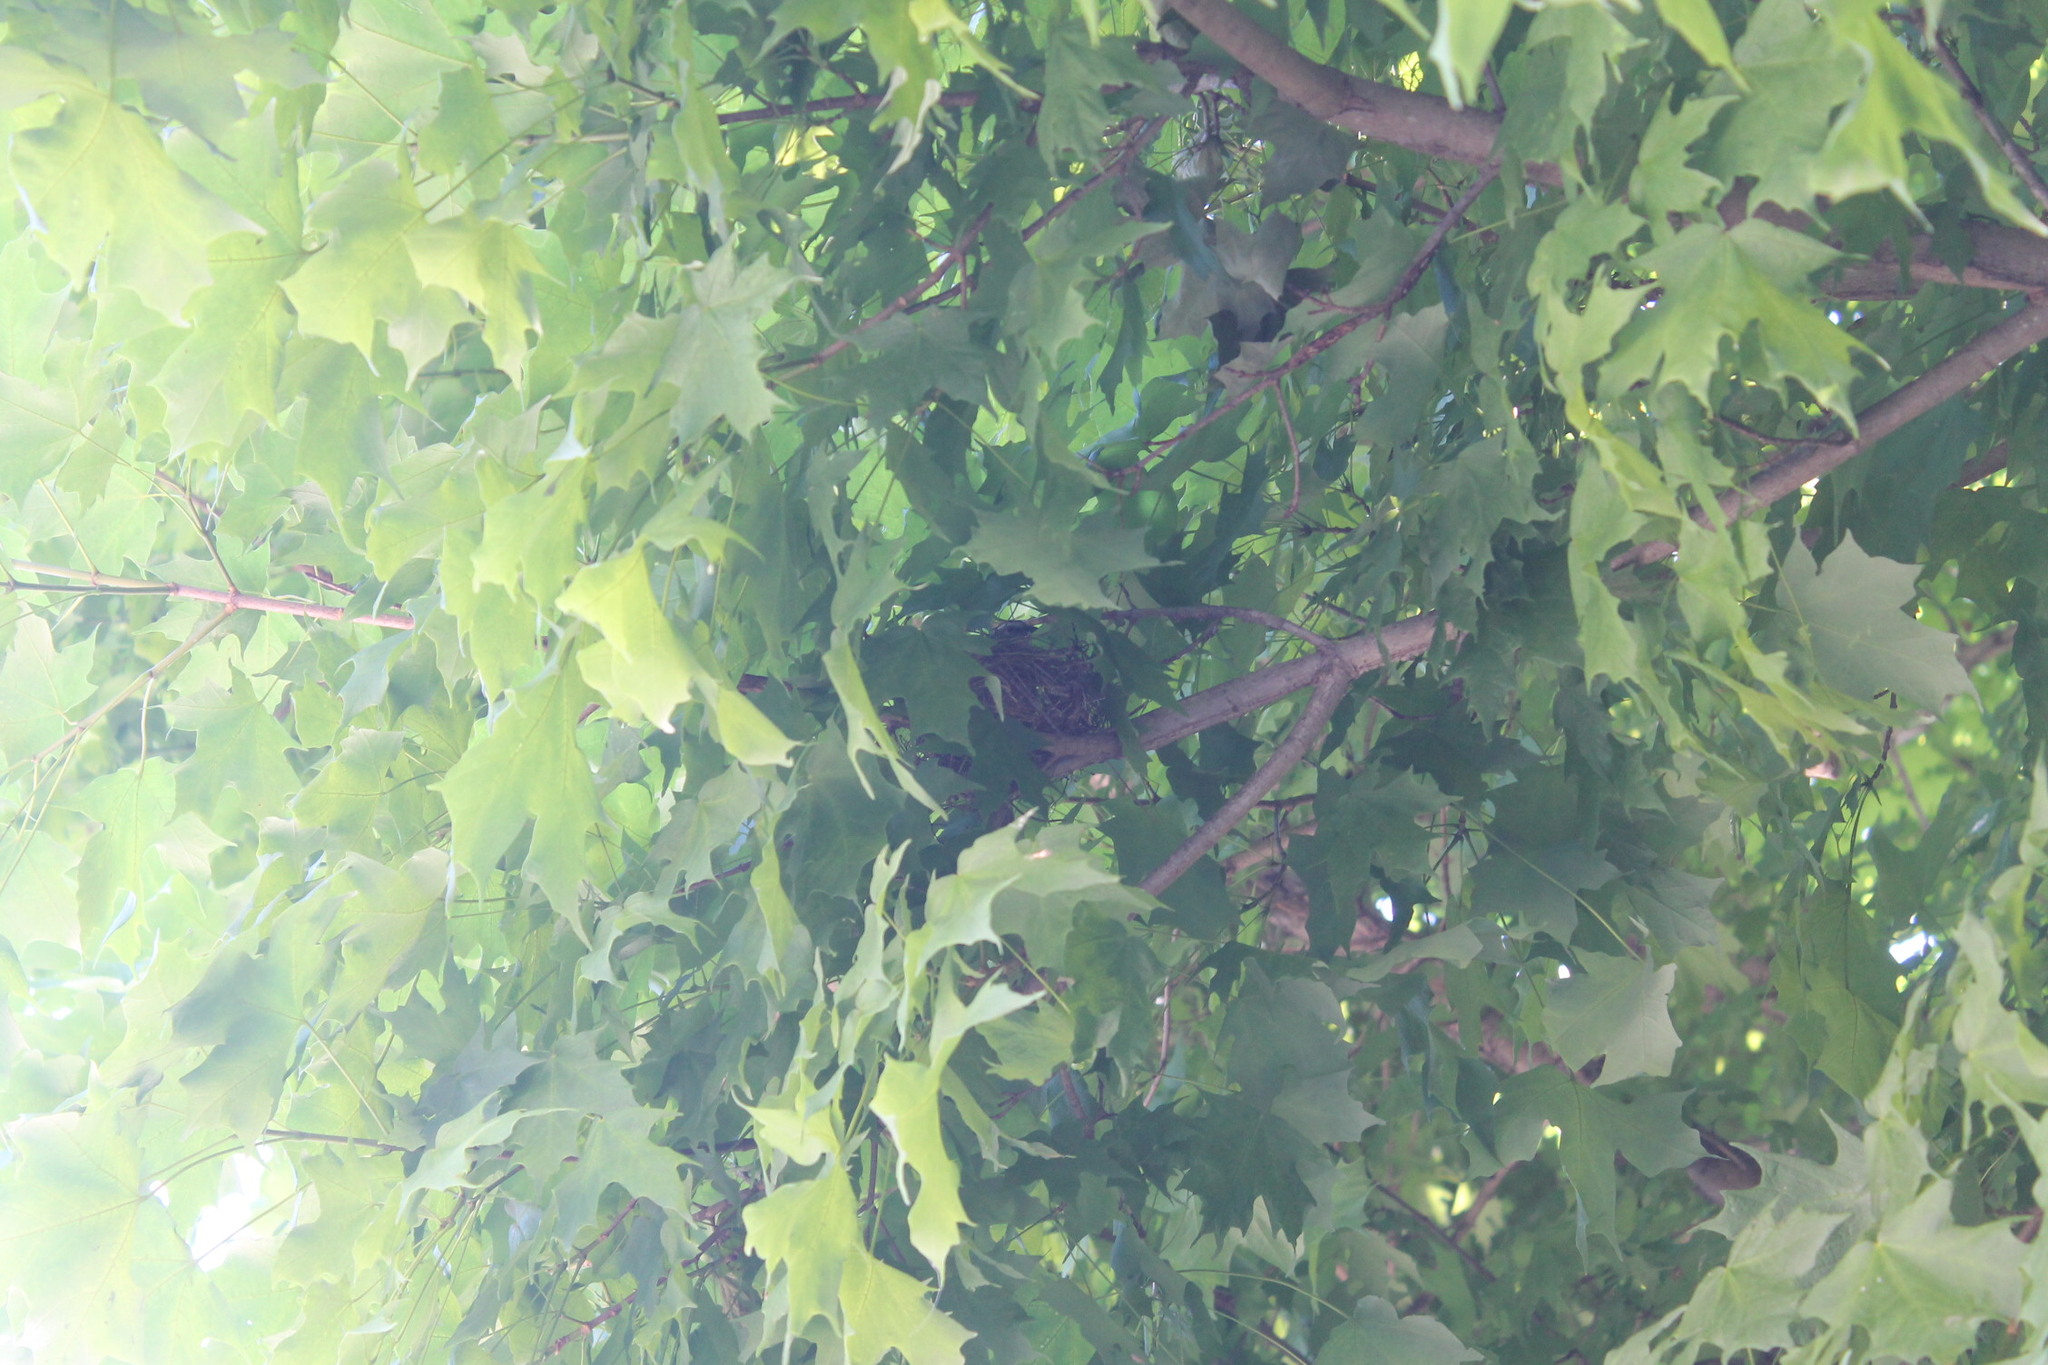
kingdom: Animalia
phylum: Chordata
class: Aves
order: Passeriformes
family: Passerellidae
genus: Spizella
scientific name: Spizella passerina
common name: Chipping sparrow
